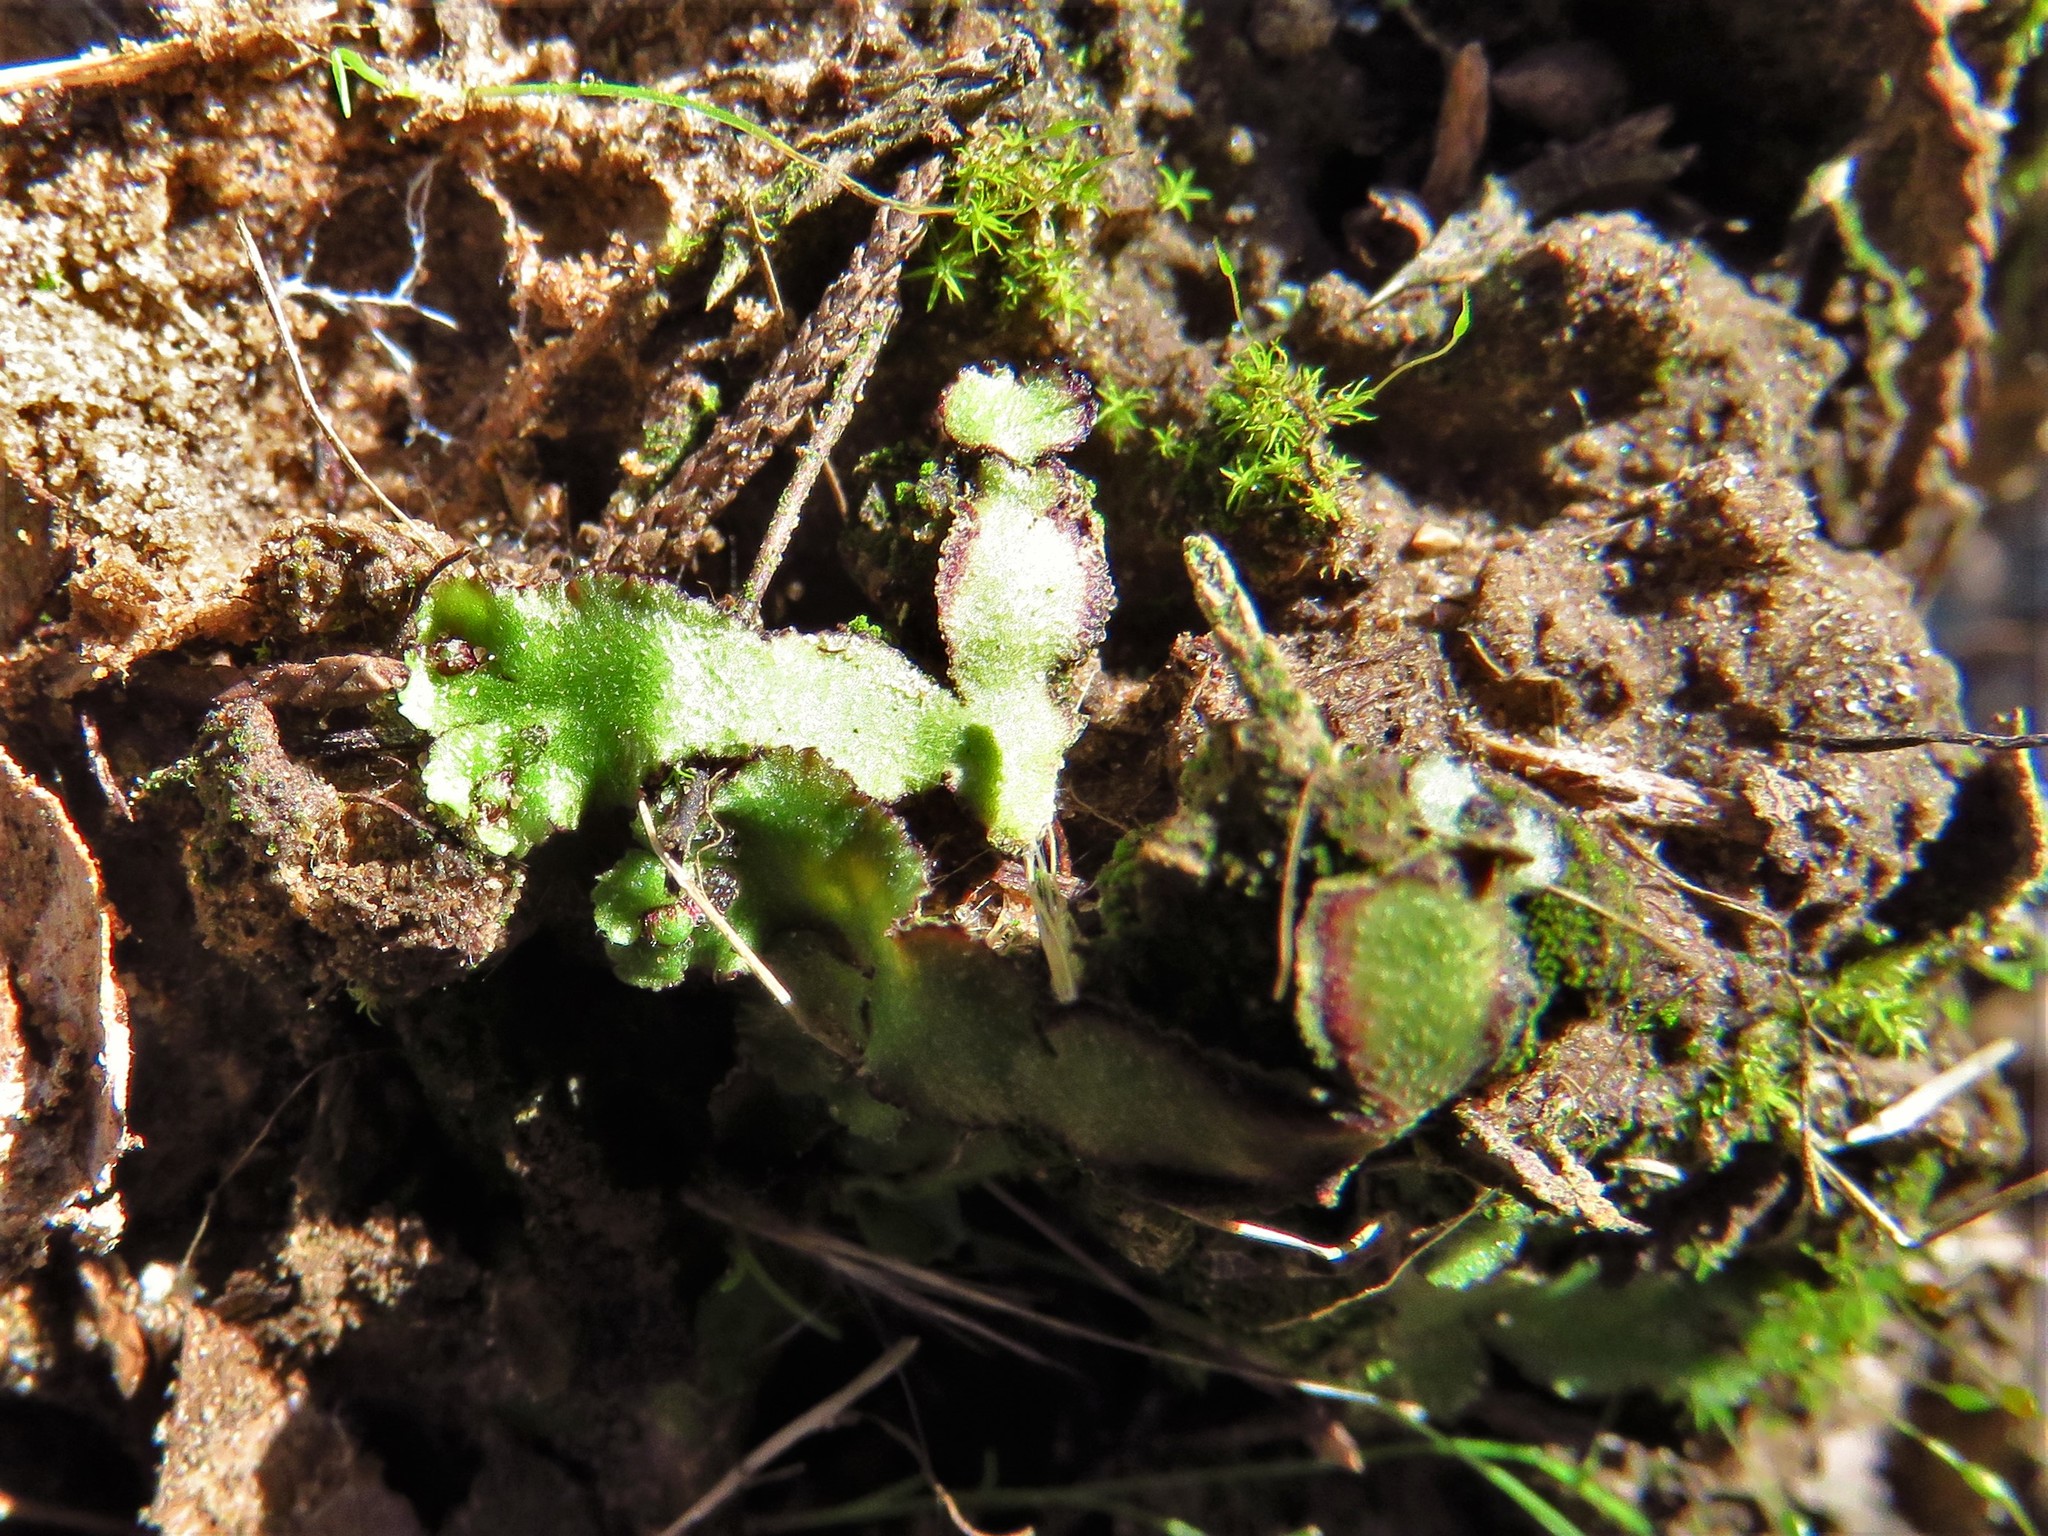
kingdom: Plantae
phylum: Marchantiophyta
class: Marchantiopsida
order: Marchantiales
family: Aytoniaceae
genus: Reboulia
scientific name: Reboulia hemisphaerica
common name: Purple-margined liverwort
